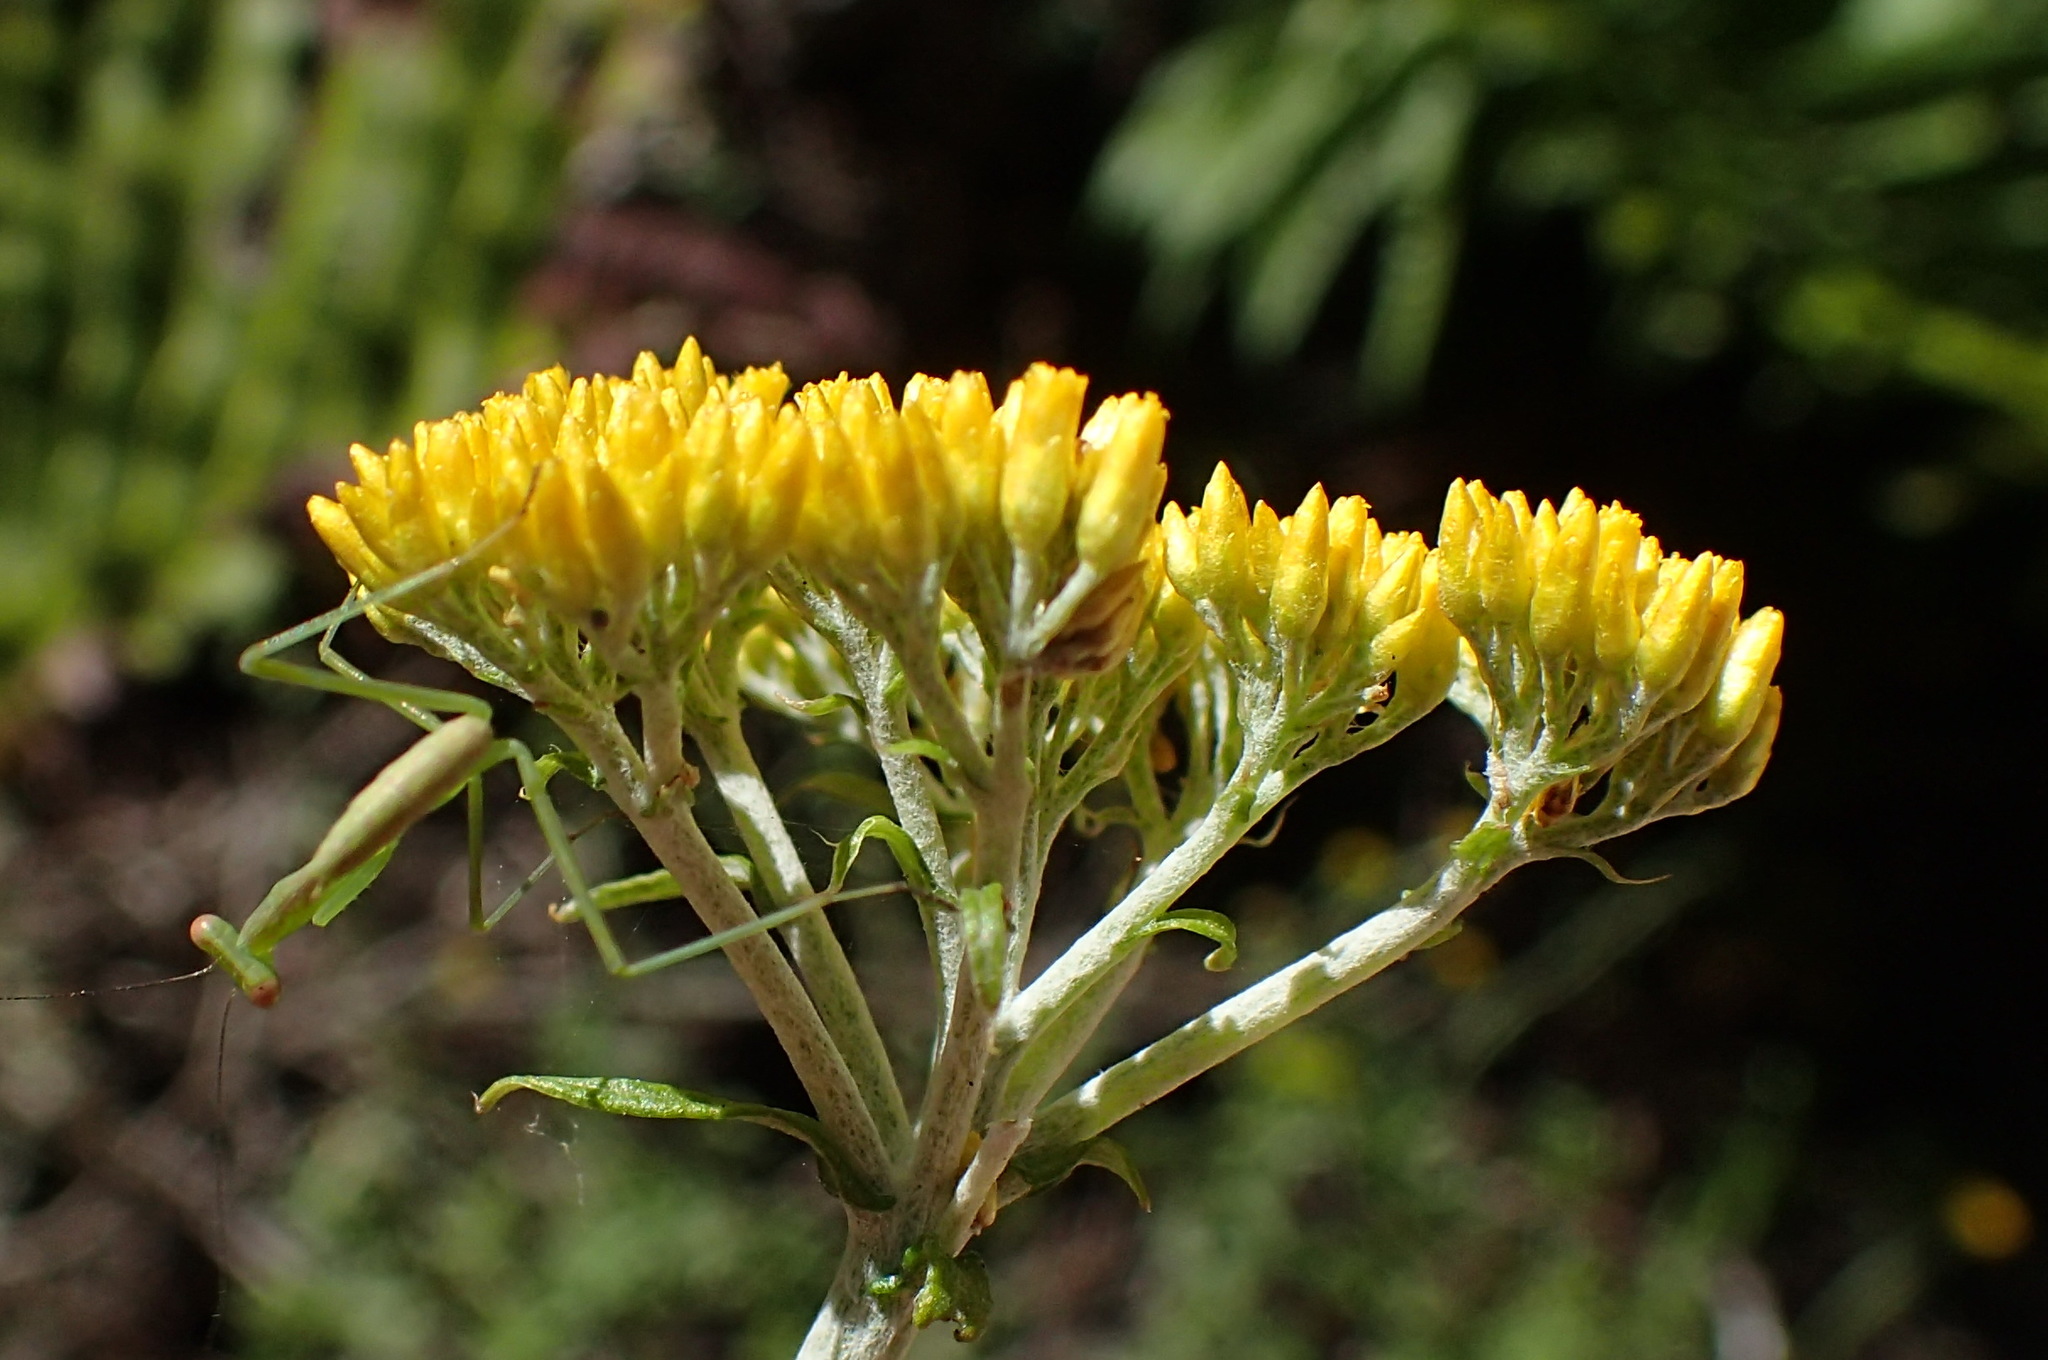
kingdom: Plantae
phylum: Tracheophyta
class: Magnoliopsida
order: Asterales
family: Asteraceae
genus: Helichrysum
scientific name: Helichrysum cymosum
